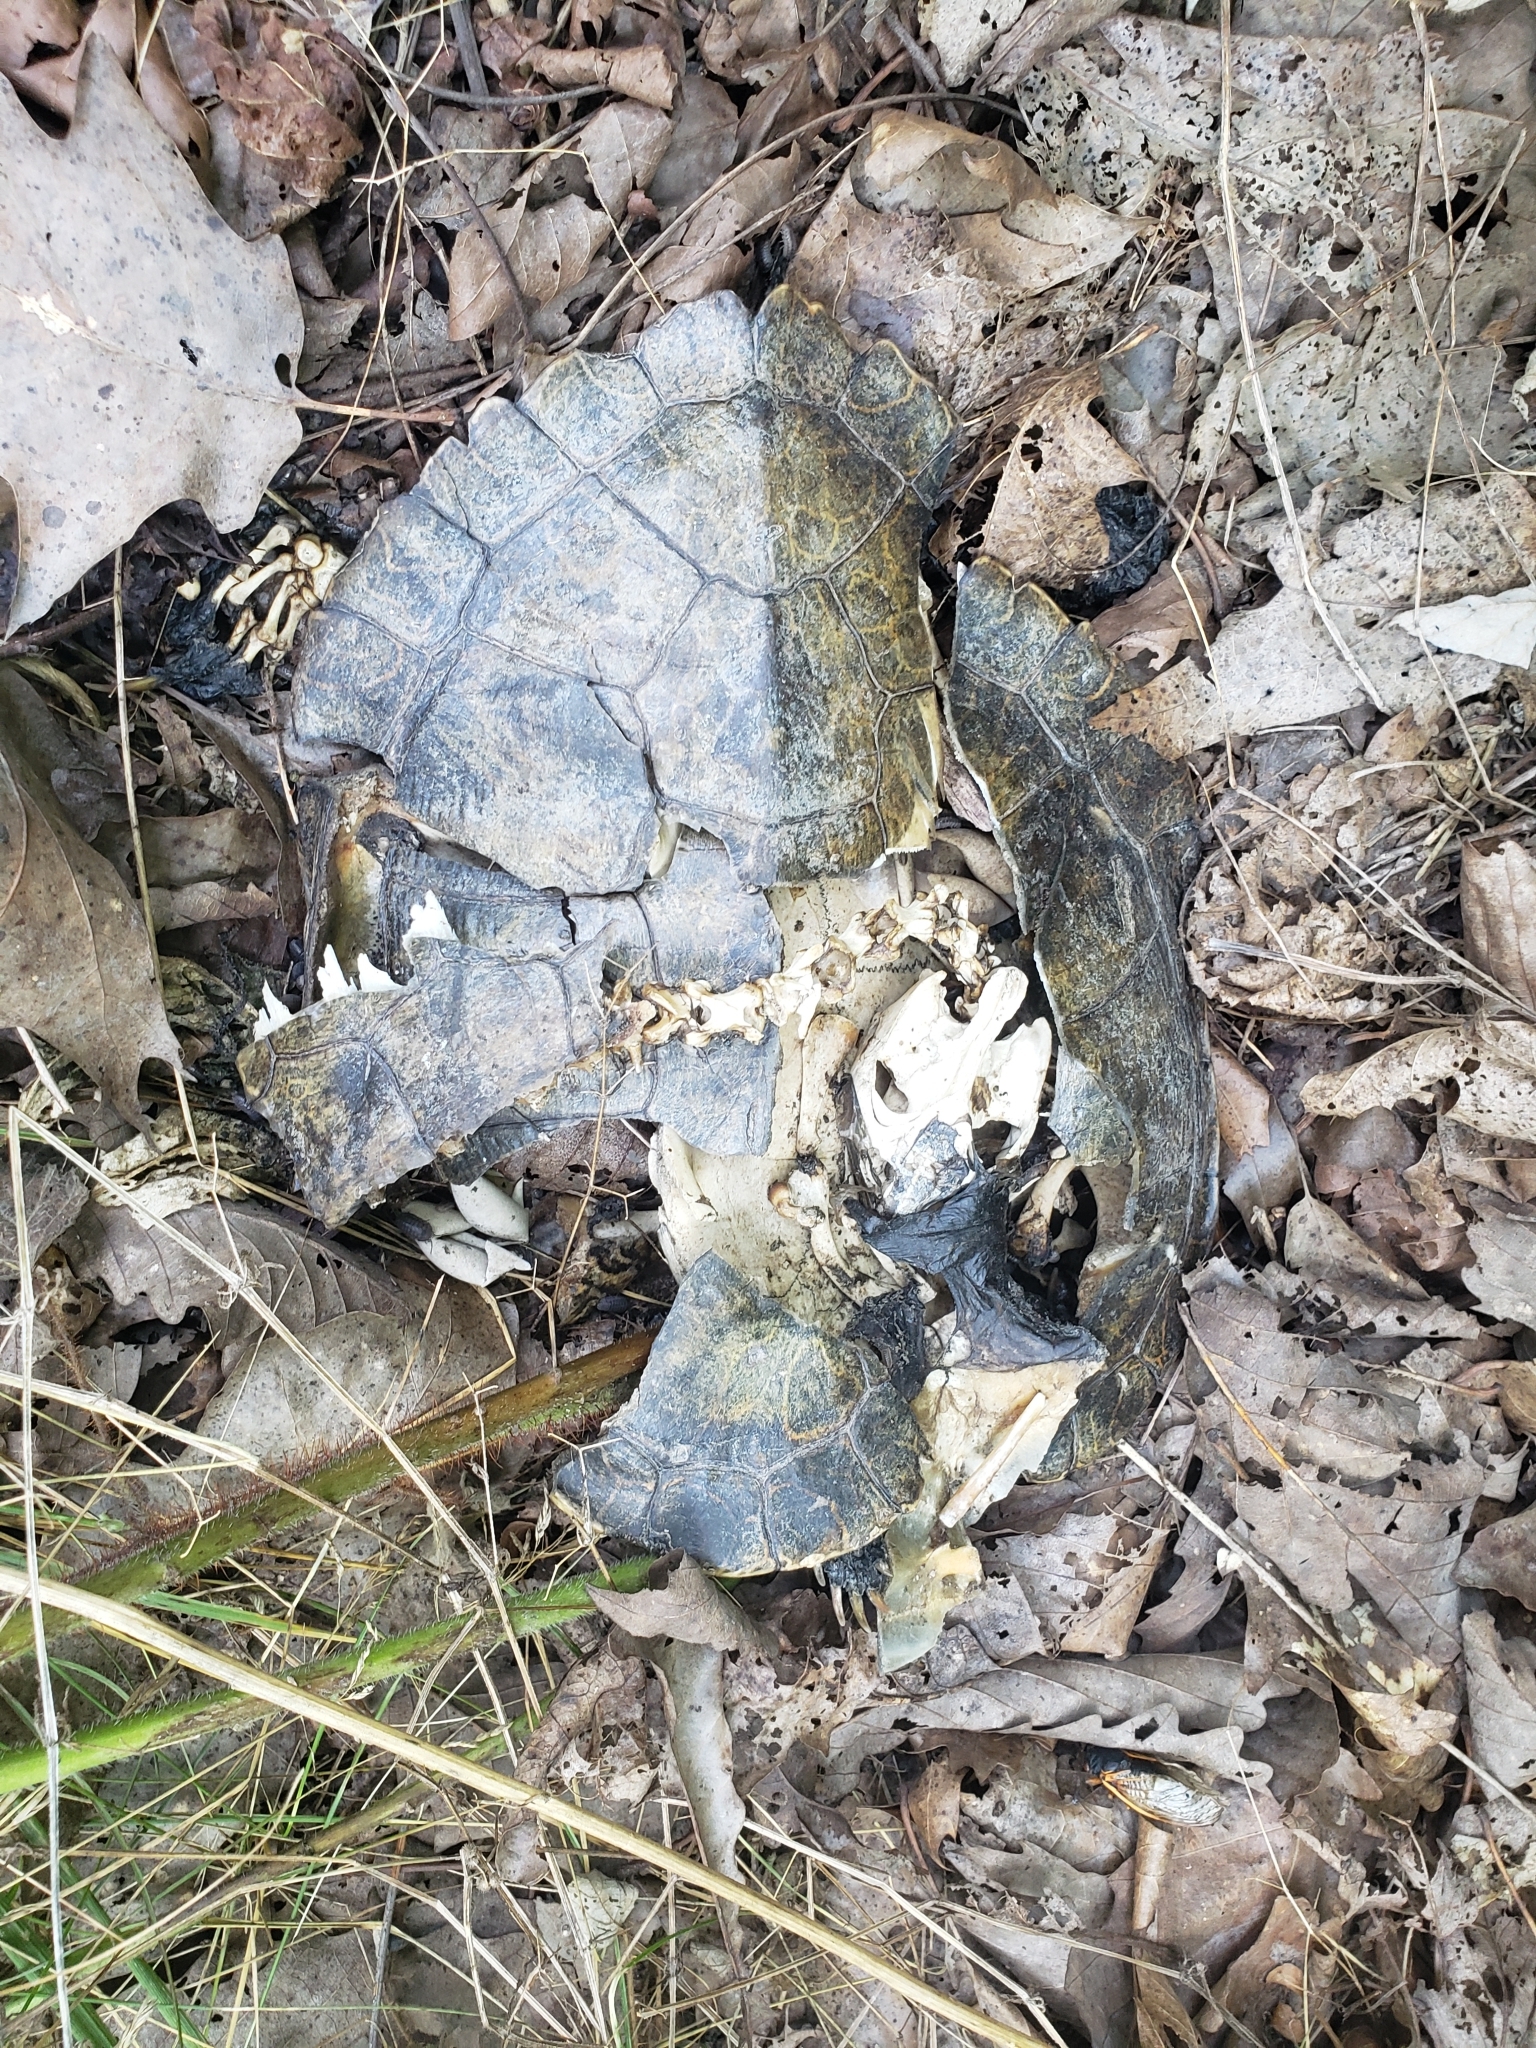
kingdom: Animalia
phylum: Chordata
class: Testudines
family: Emydidae
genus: Graptemys
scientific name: Graptemys geographica
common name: Common map turtle
